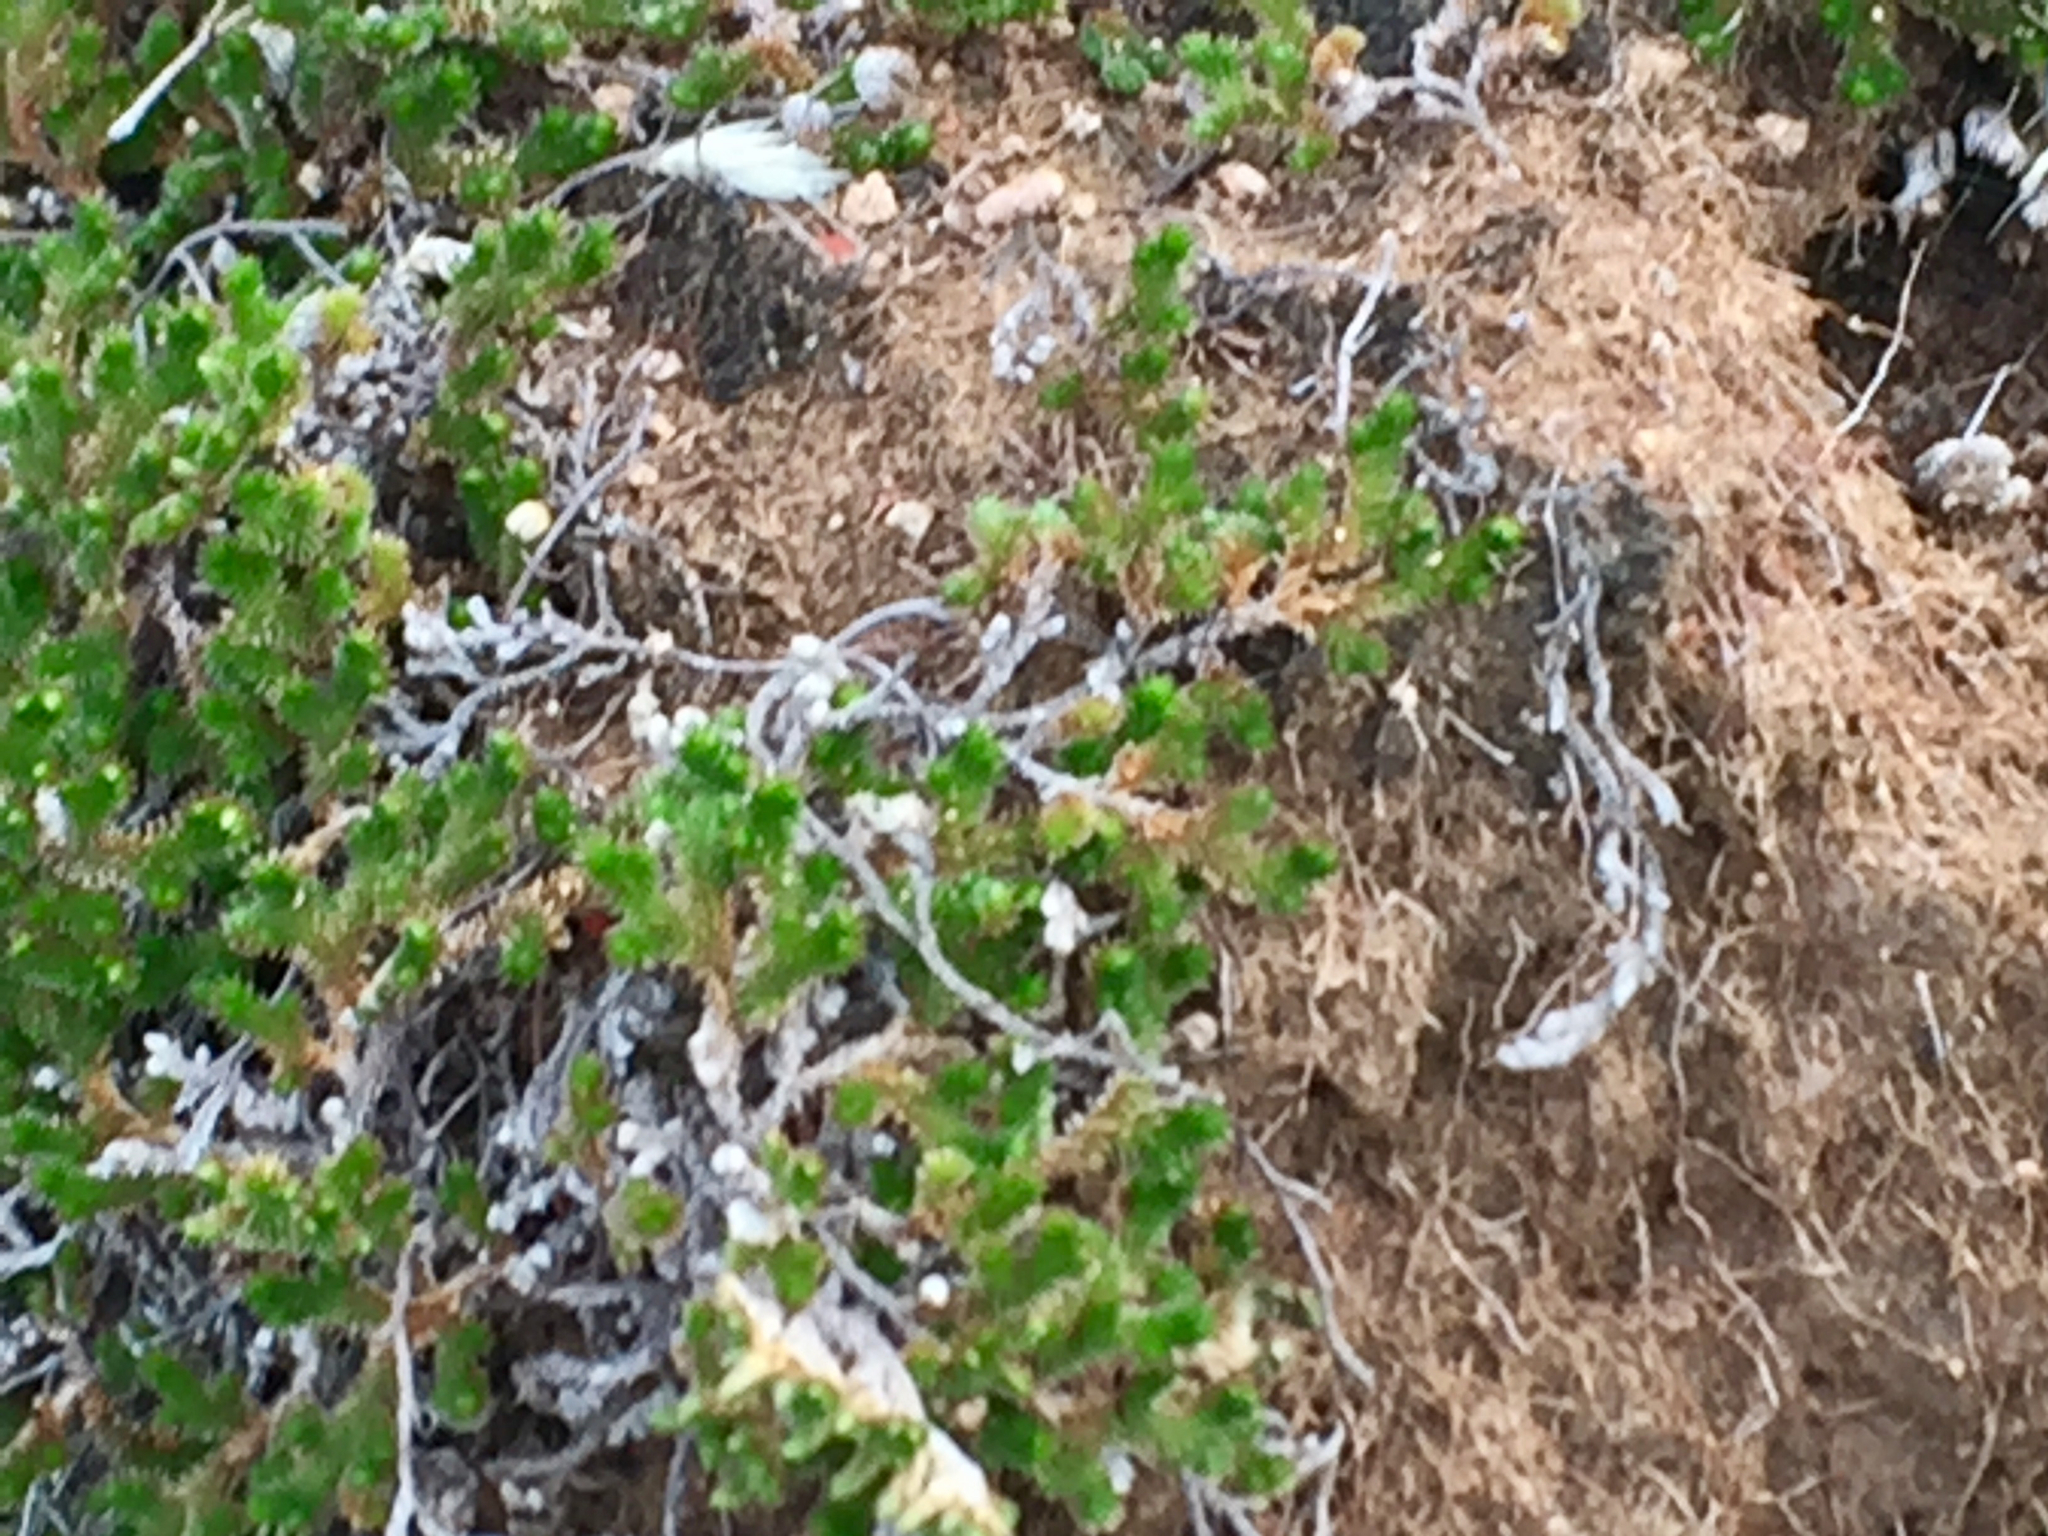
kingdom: Plantae
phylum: Tracheophyta
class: Lycopodiopsida
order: Selaginellales
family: Selaginellaceae
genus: Selaginella
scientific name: Selaginella arizonica
